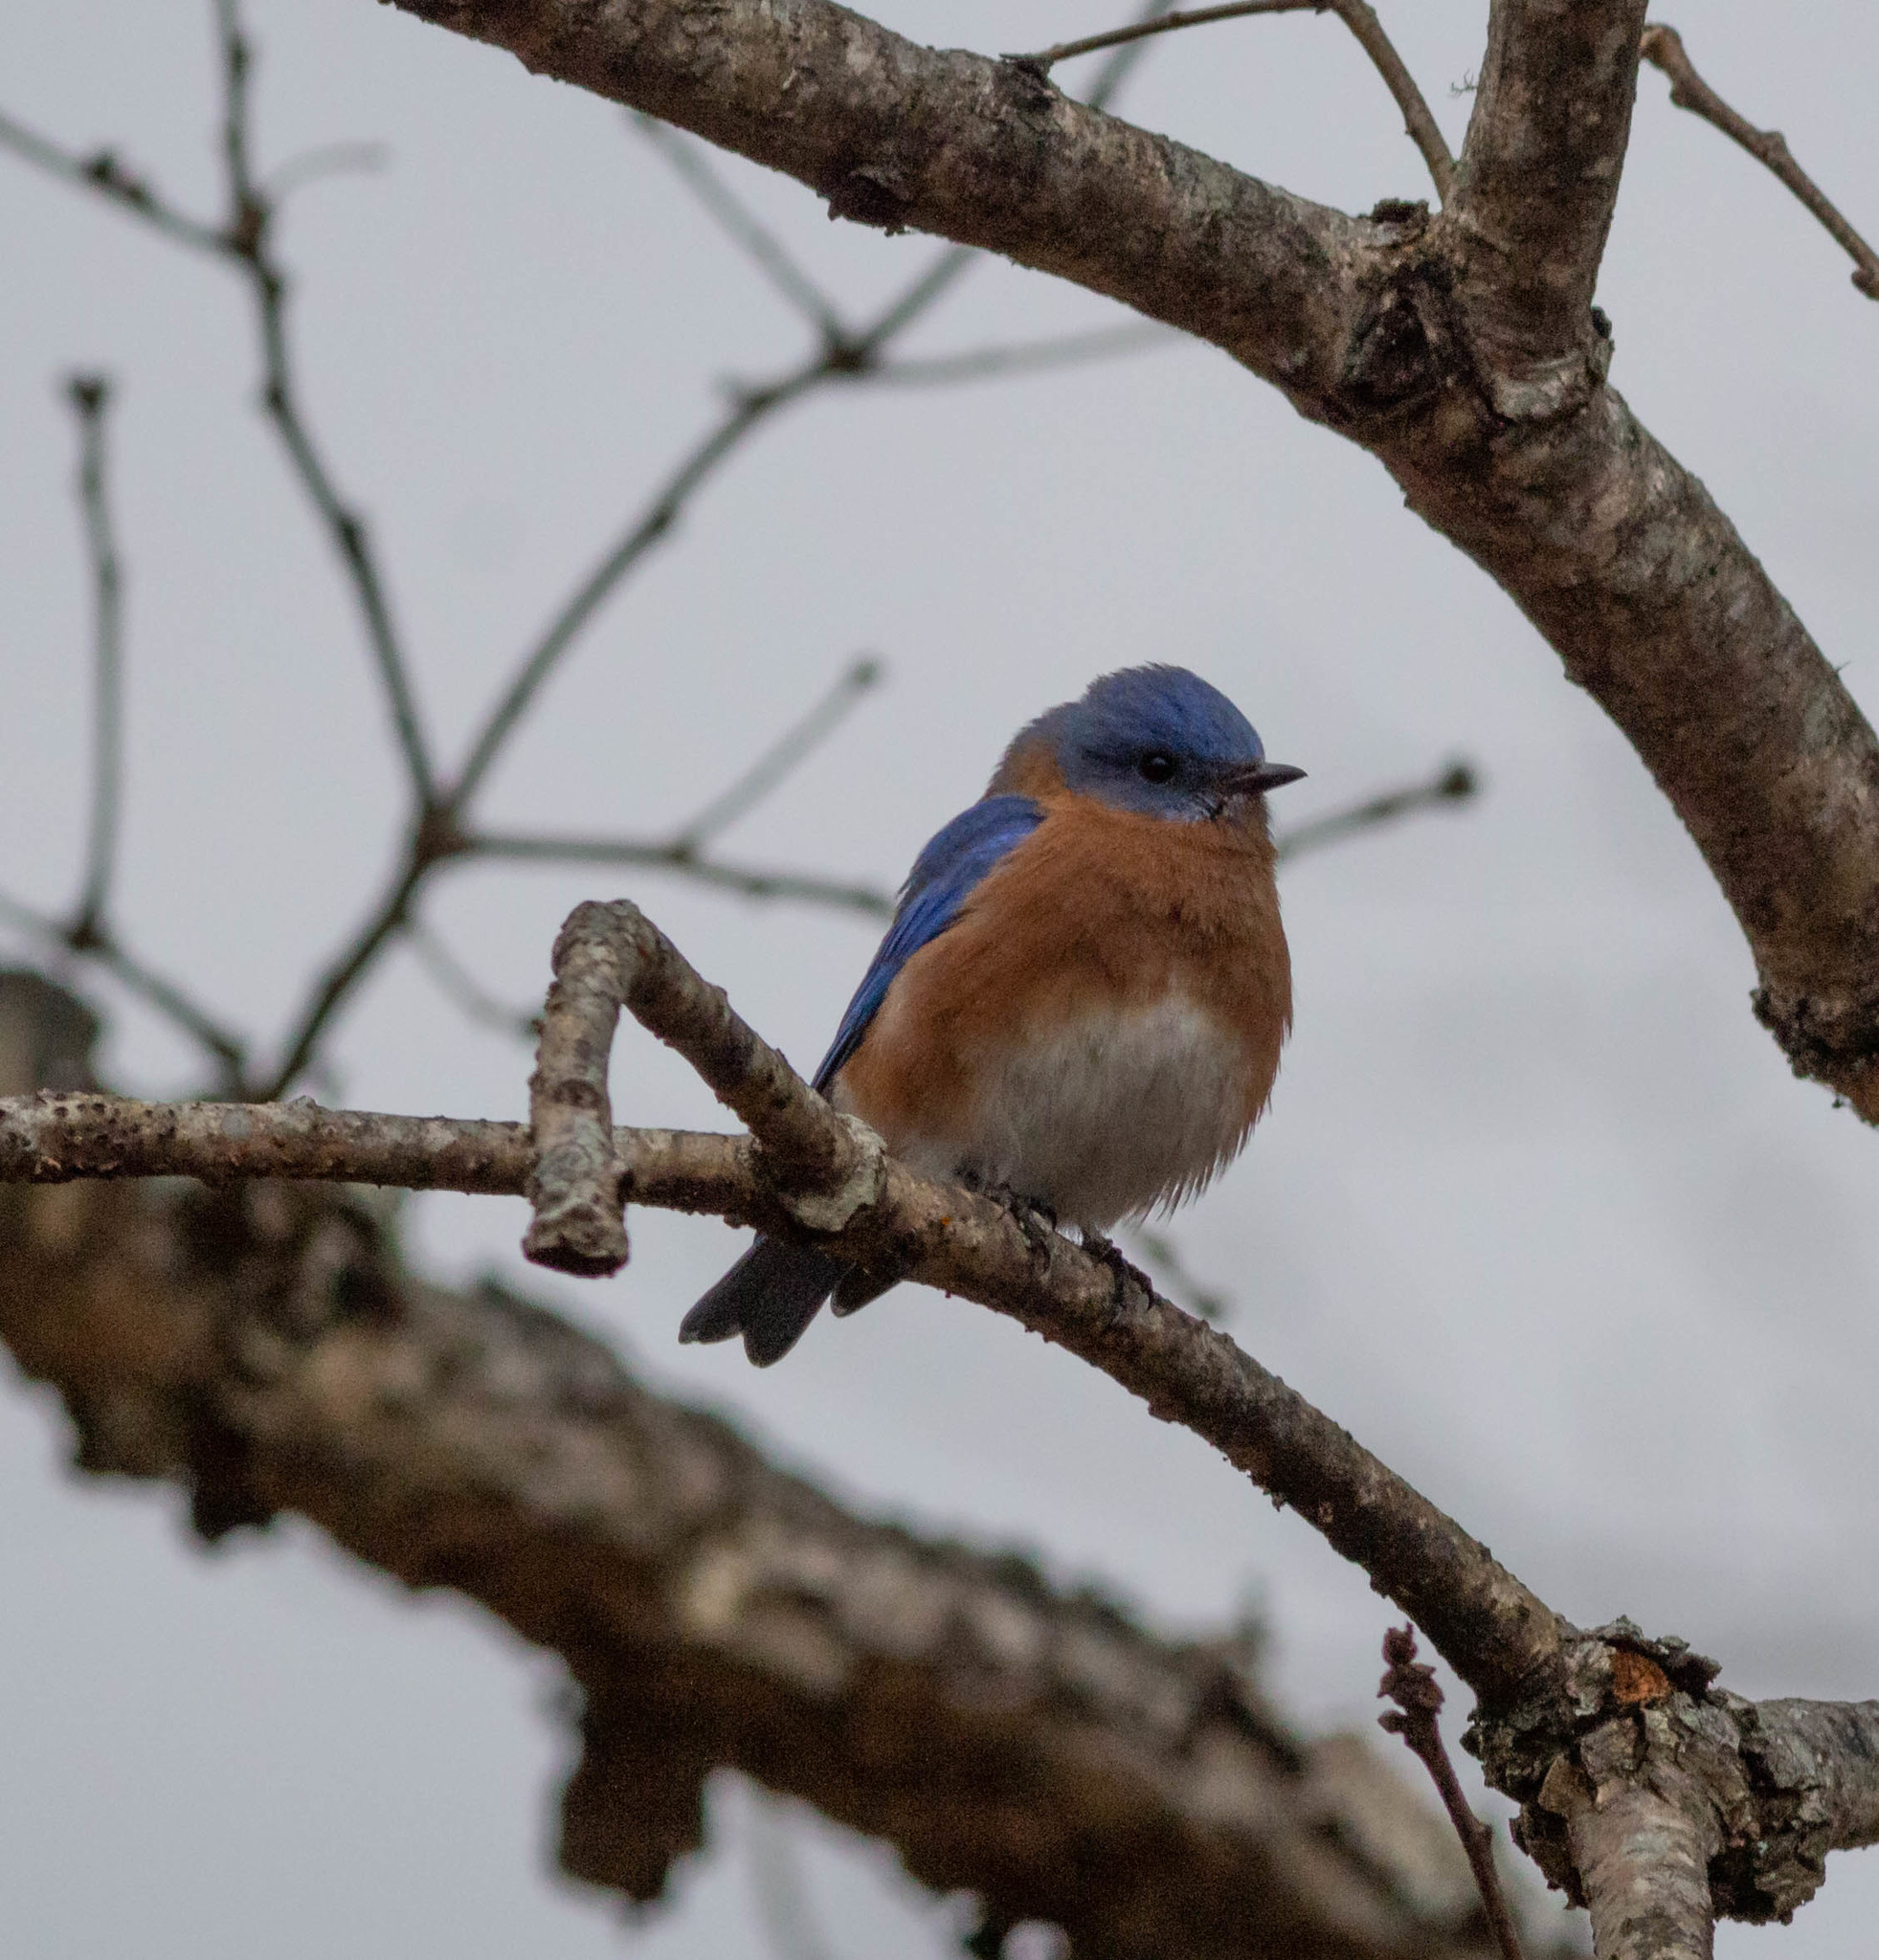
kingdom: Animalia
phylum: Chordata
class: Aves
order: Passeriformes
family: Turdidae
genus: Sialia
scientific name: Sialia sialis
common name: Eastern bluebird
